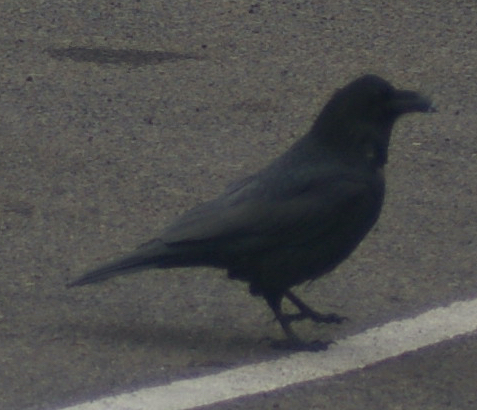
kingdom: Animalia
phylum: Chordata
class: Aves
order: Passeriformes
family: Corvidae
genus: Corvus
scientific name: Corvus corax
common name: Common raven
